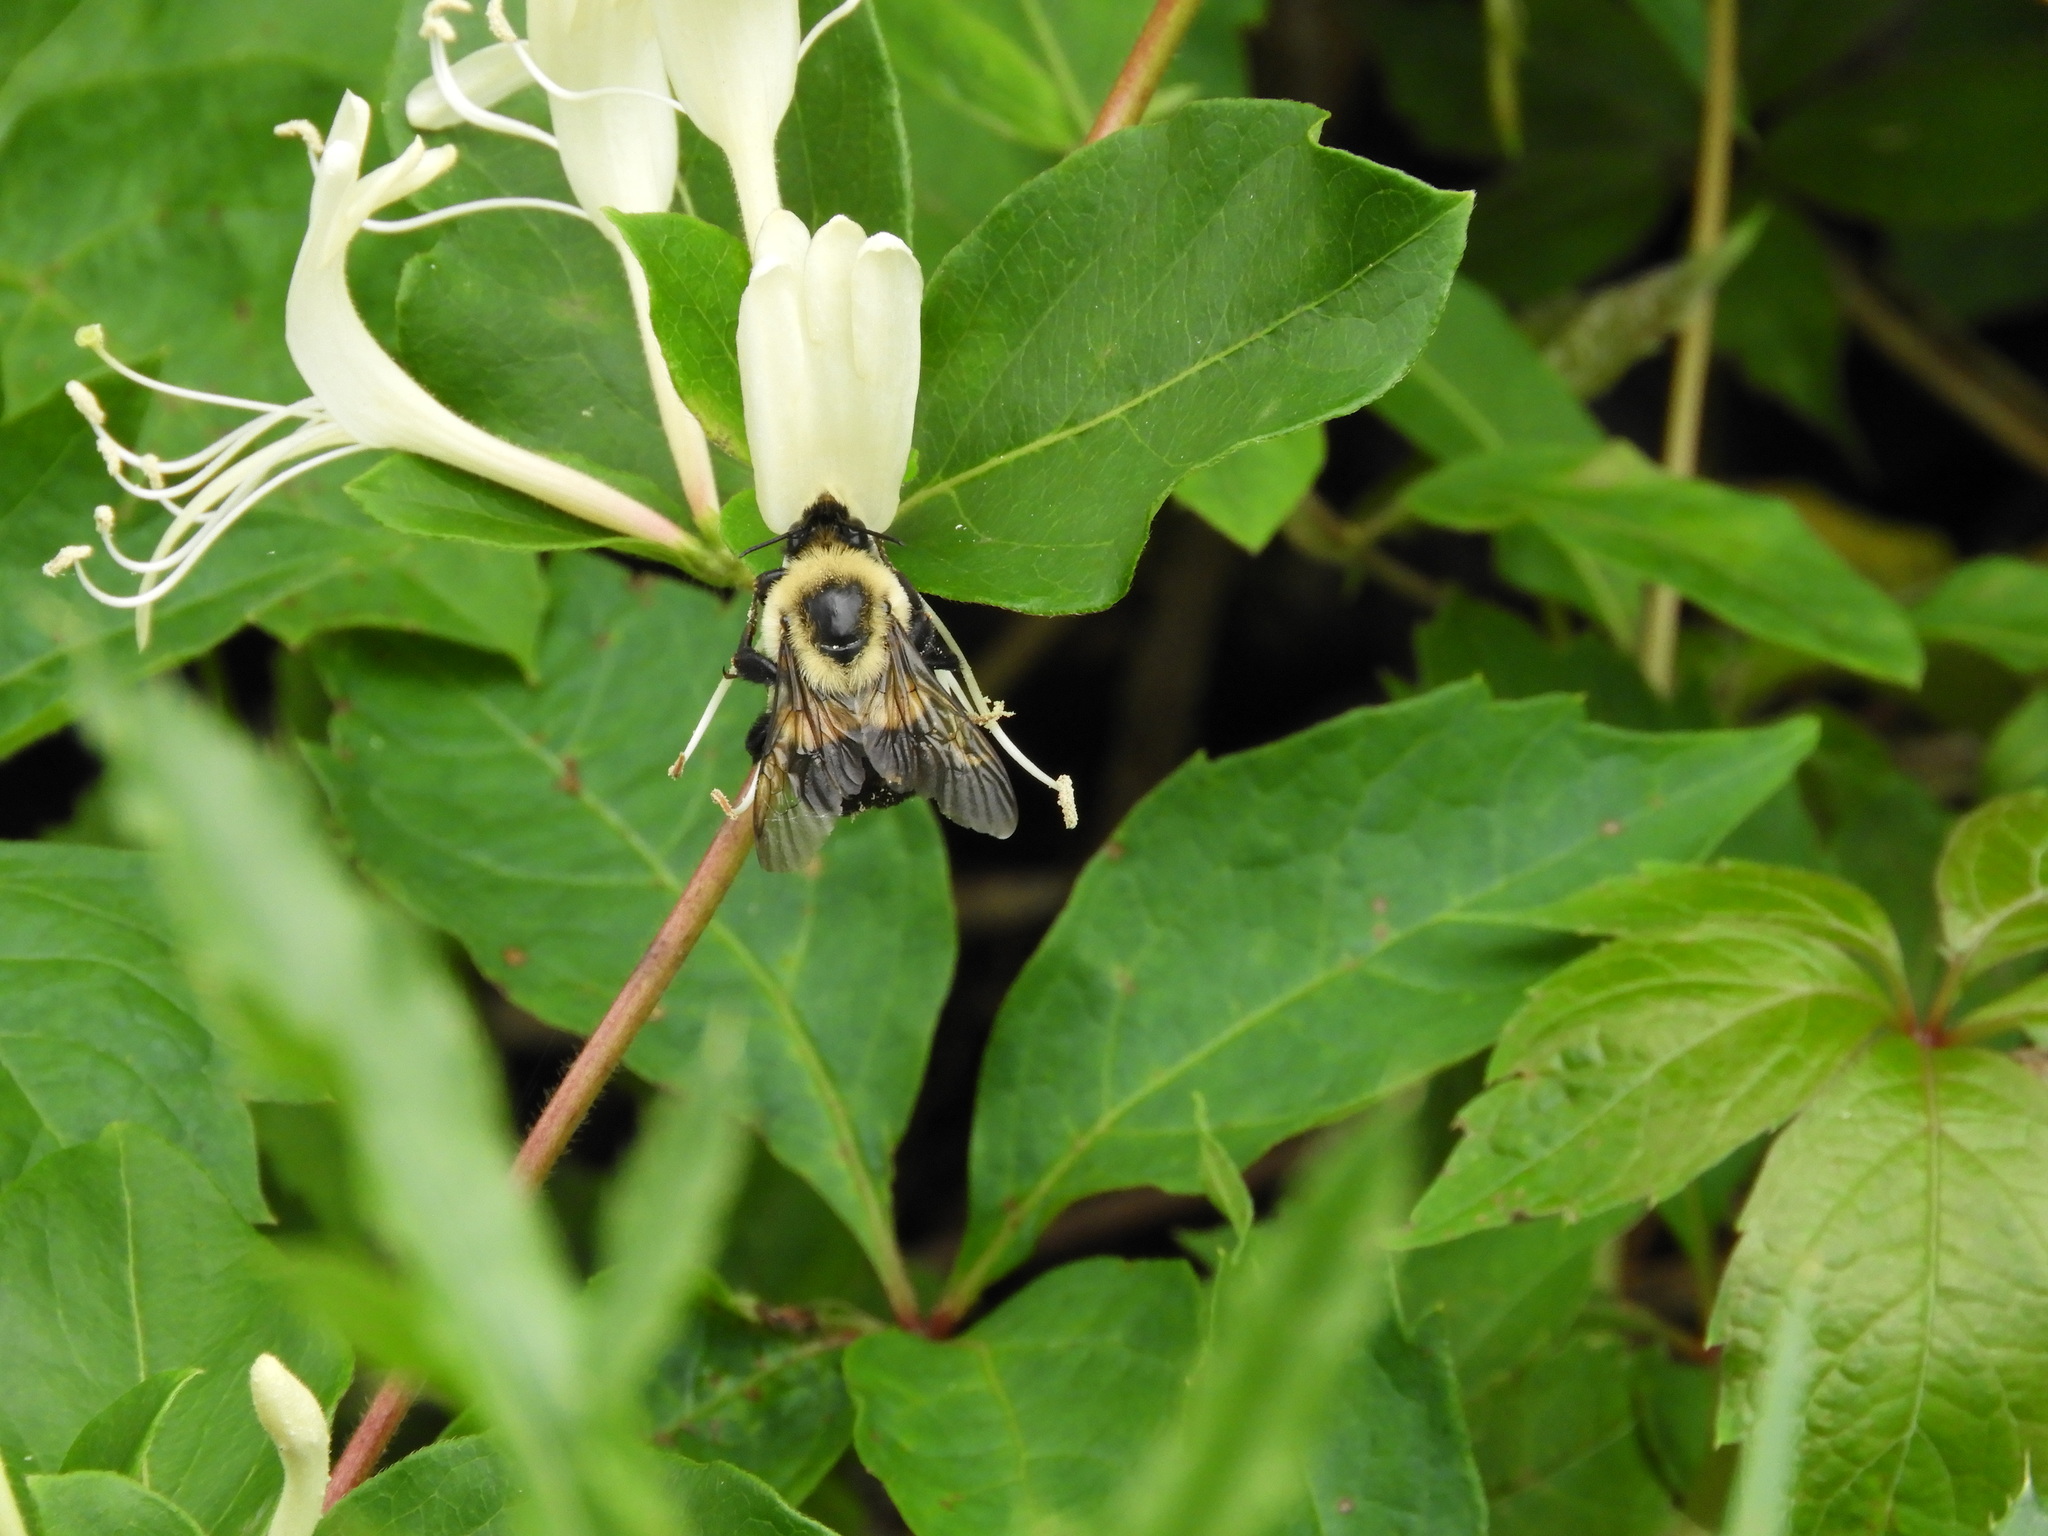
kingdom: Animalia
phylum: Arthropoda
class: Insecta
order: Hymenoptera
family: Apidae
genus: Bombus
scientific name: Bombus impatiens
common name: Common eastern bumble bee
